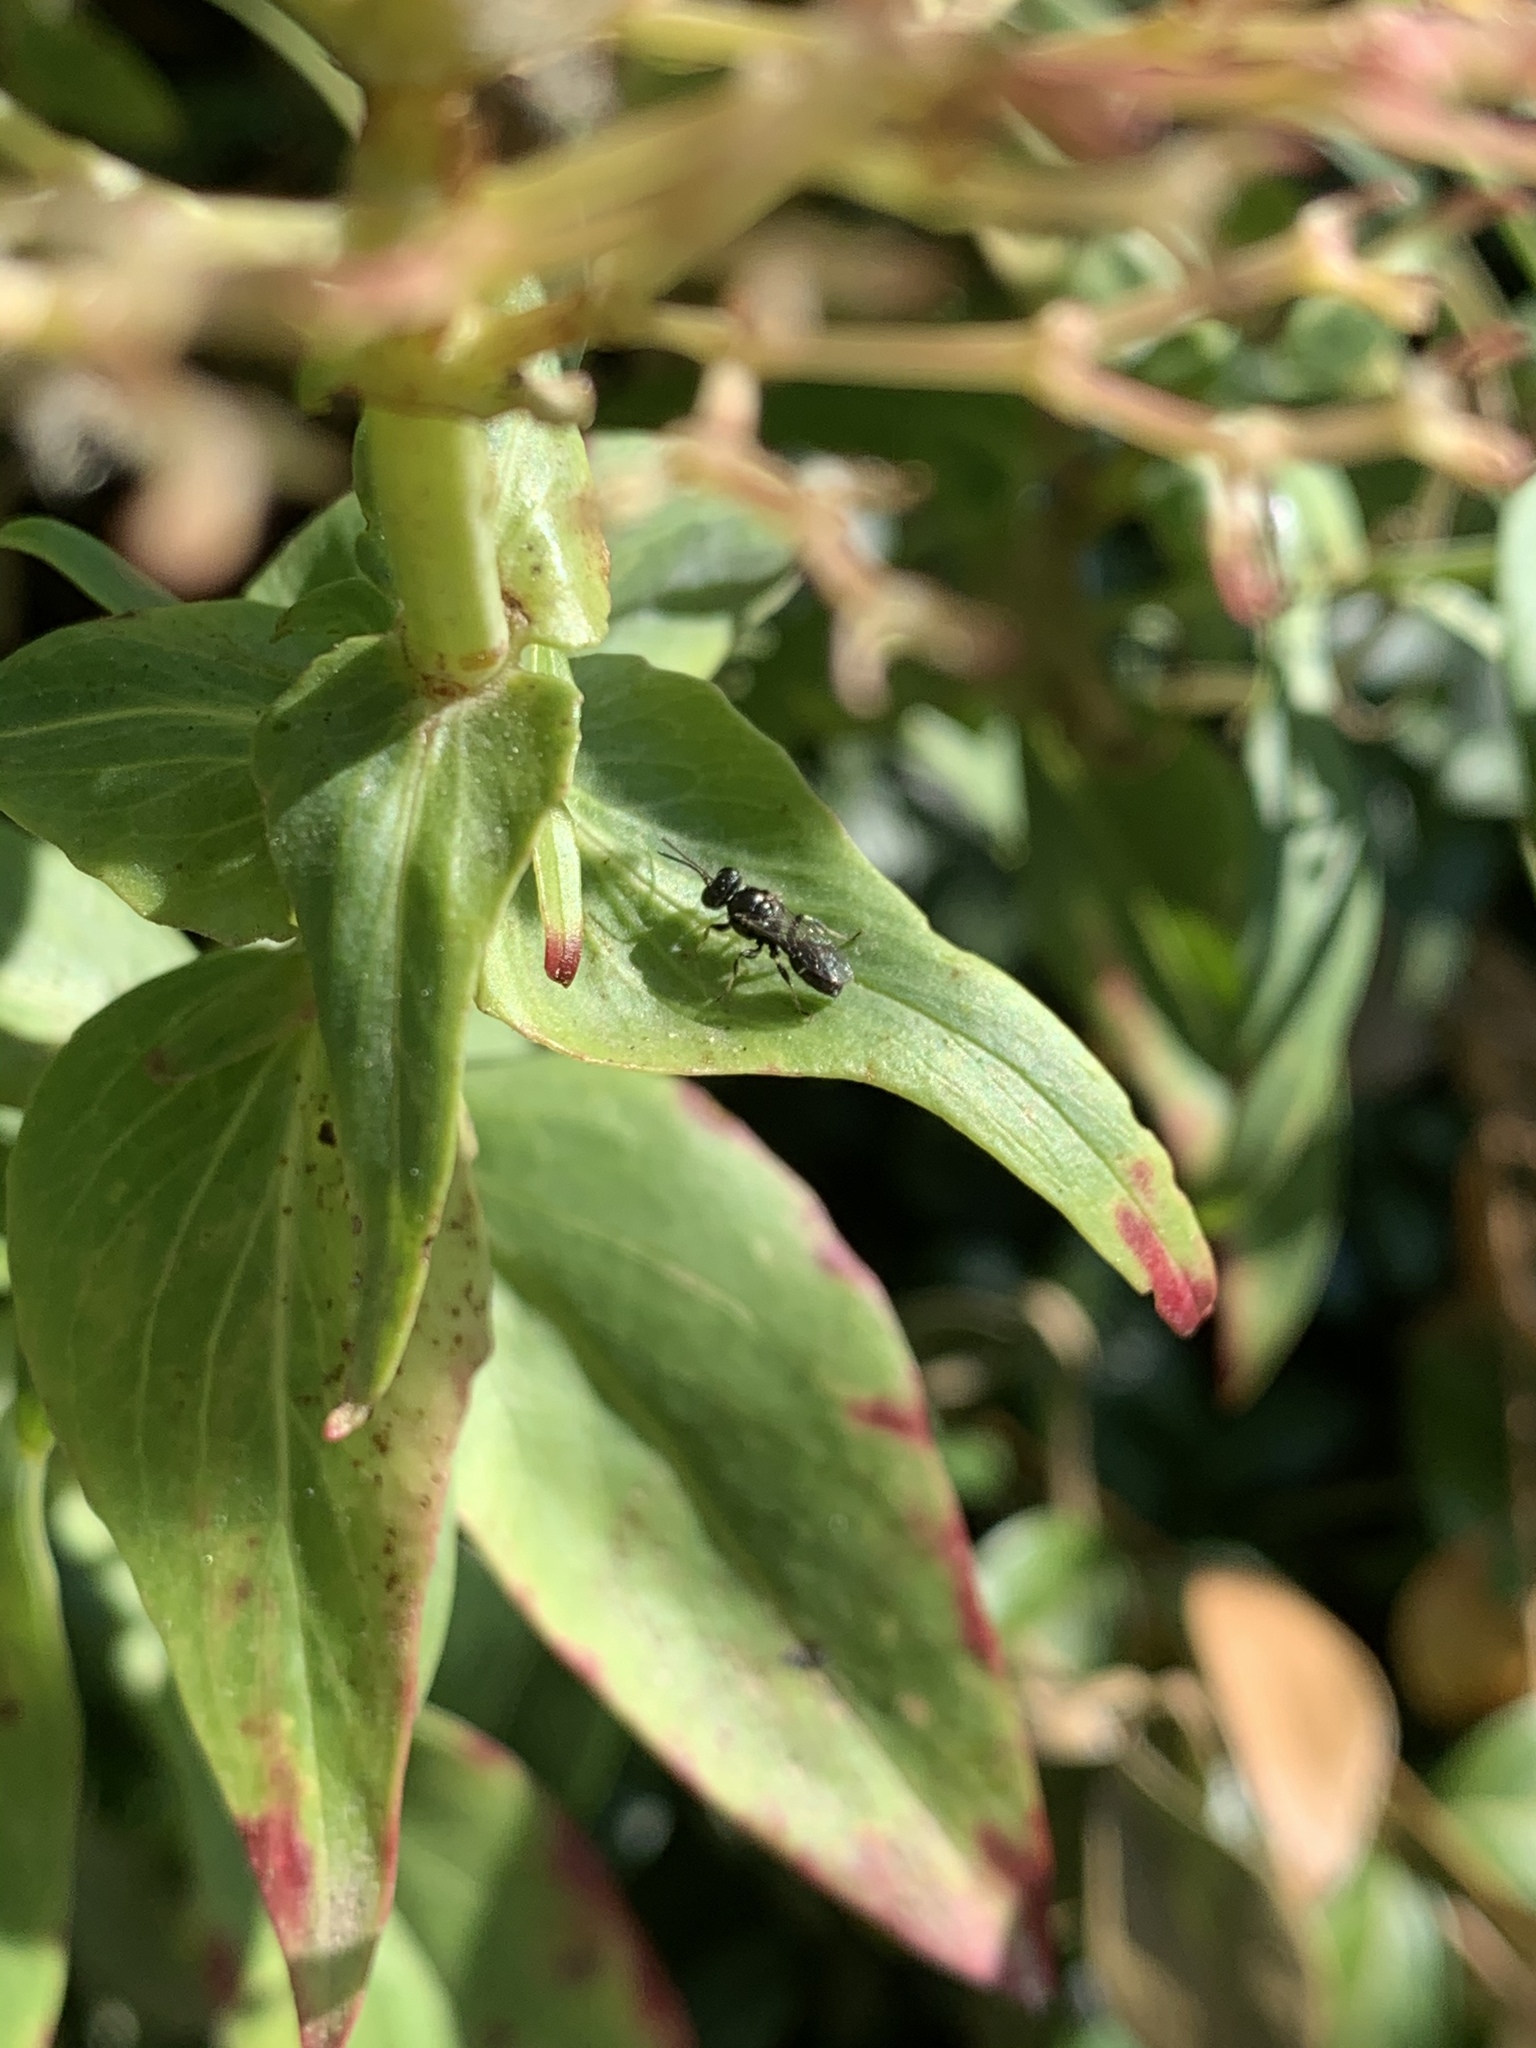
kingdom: Animalia
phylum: Arthropoda
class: Insecta
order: Hymenoptera
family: Crabronidae
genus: Clitemnestra
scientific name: Clitemnestra bipunctata
